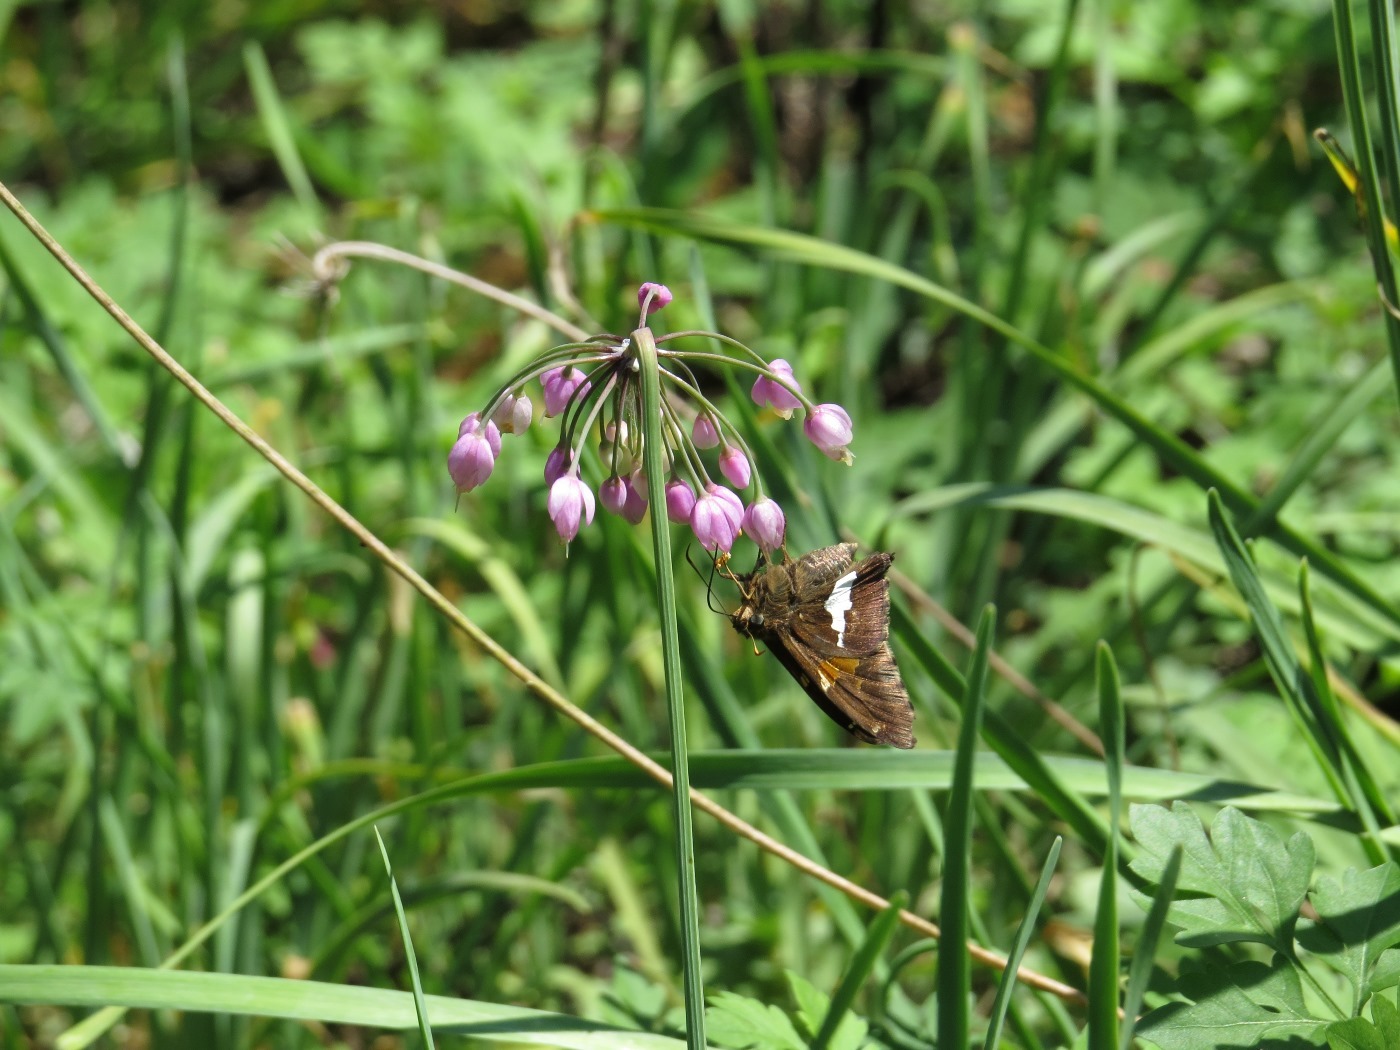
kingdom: Animalia
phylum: Arthropoda
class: Insecta
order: Lepidoptera
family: Hesperiidae
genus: Epargyreus
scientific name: Epargyreus clarus
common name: Silver-spotted skipper
